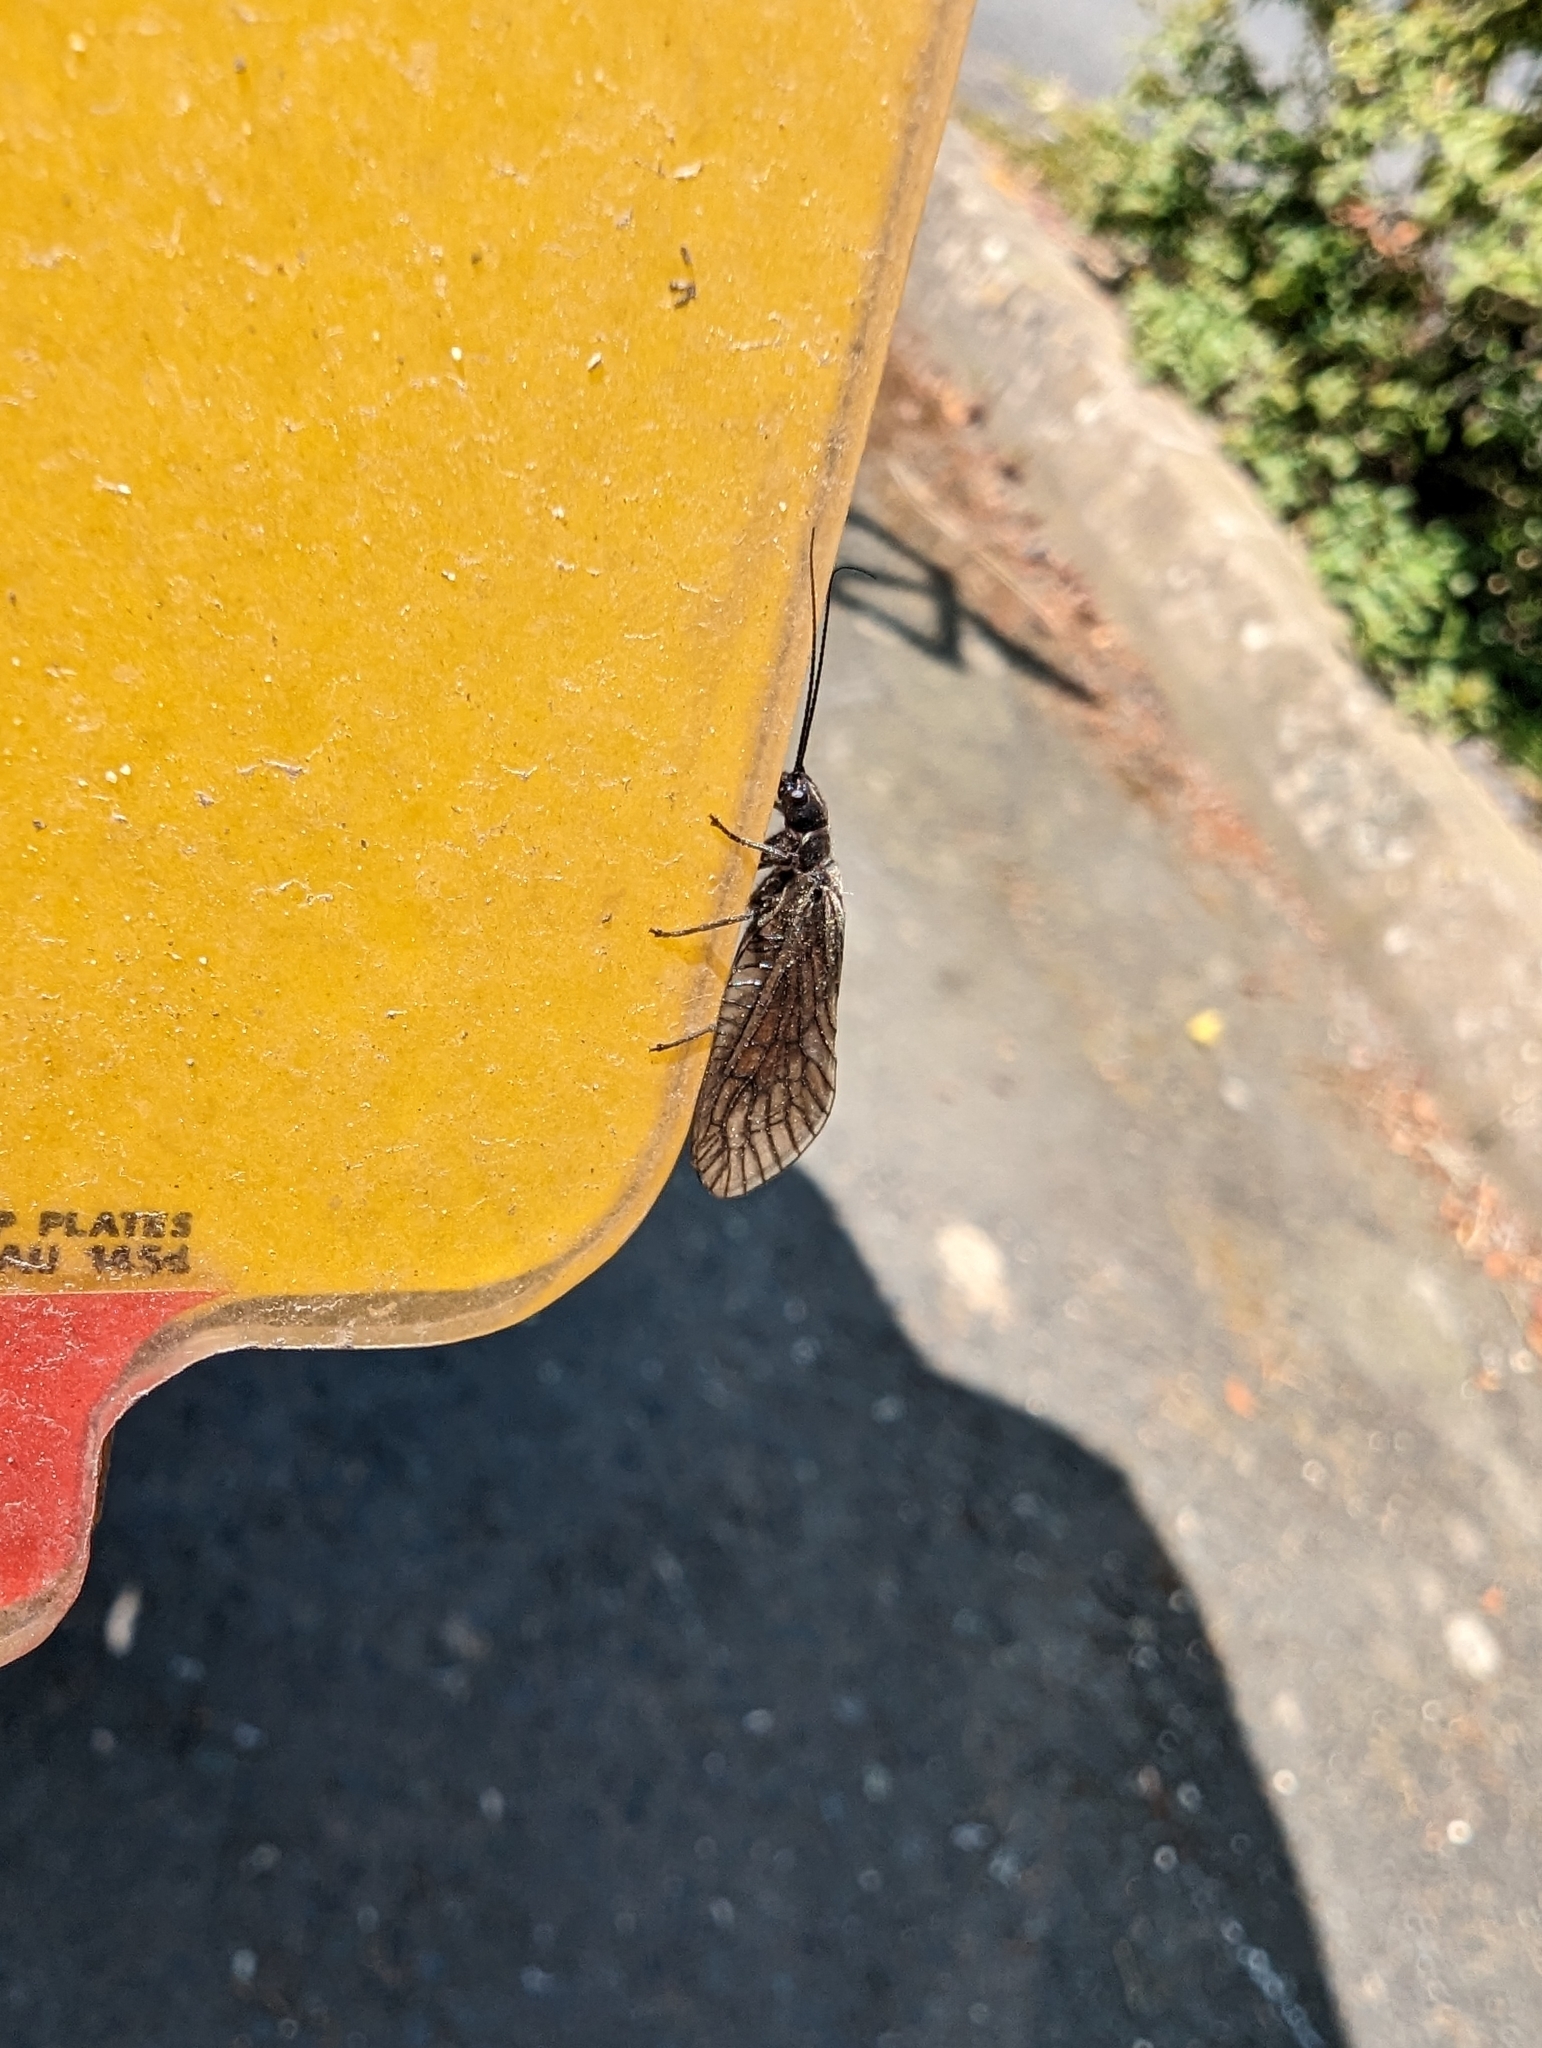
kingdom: Animalia
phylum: Arthropoda
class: Insecta
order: Megaloptera
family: Sialidae
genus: Sialis
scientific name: Sialis
